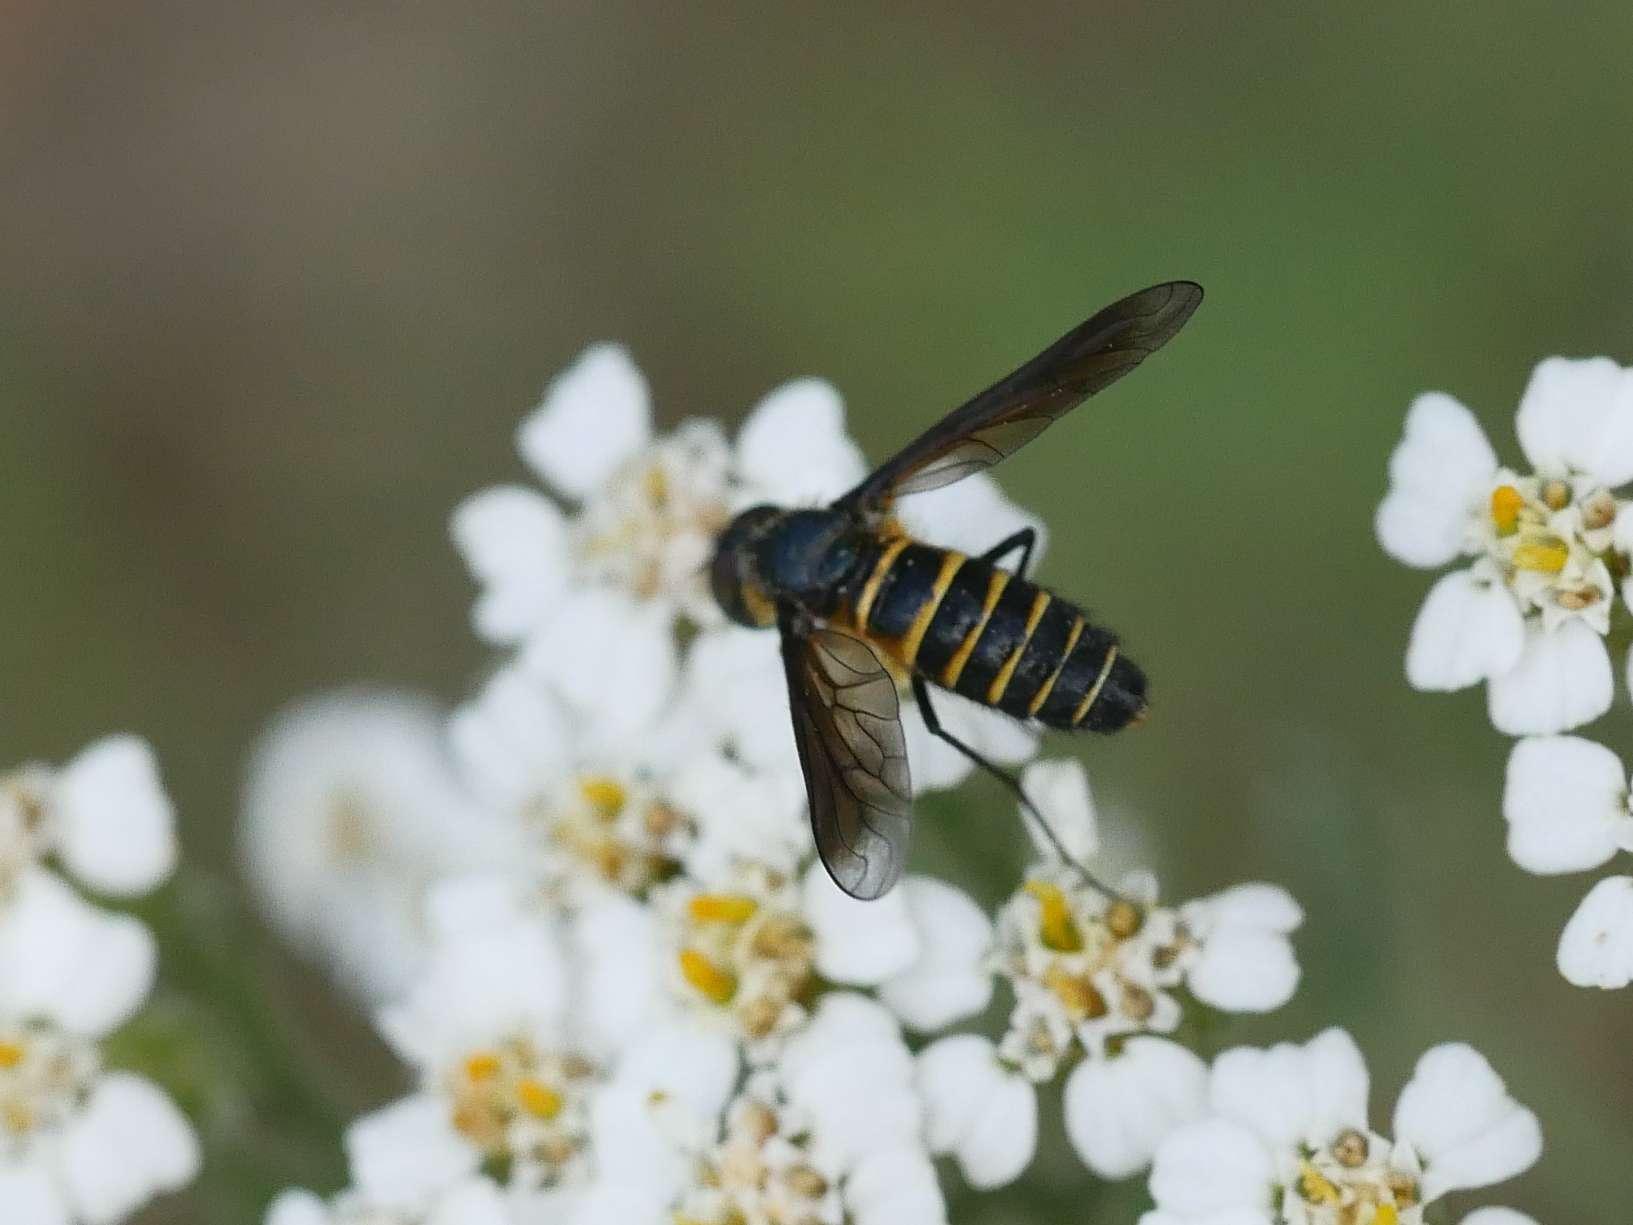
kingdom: Animalia
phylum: Arthropoda
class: Insecta
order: Diptera
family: Bombyliidae
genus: Lomatia
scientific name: Lomatia lateralis
